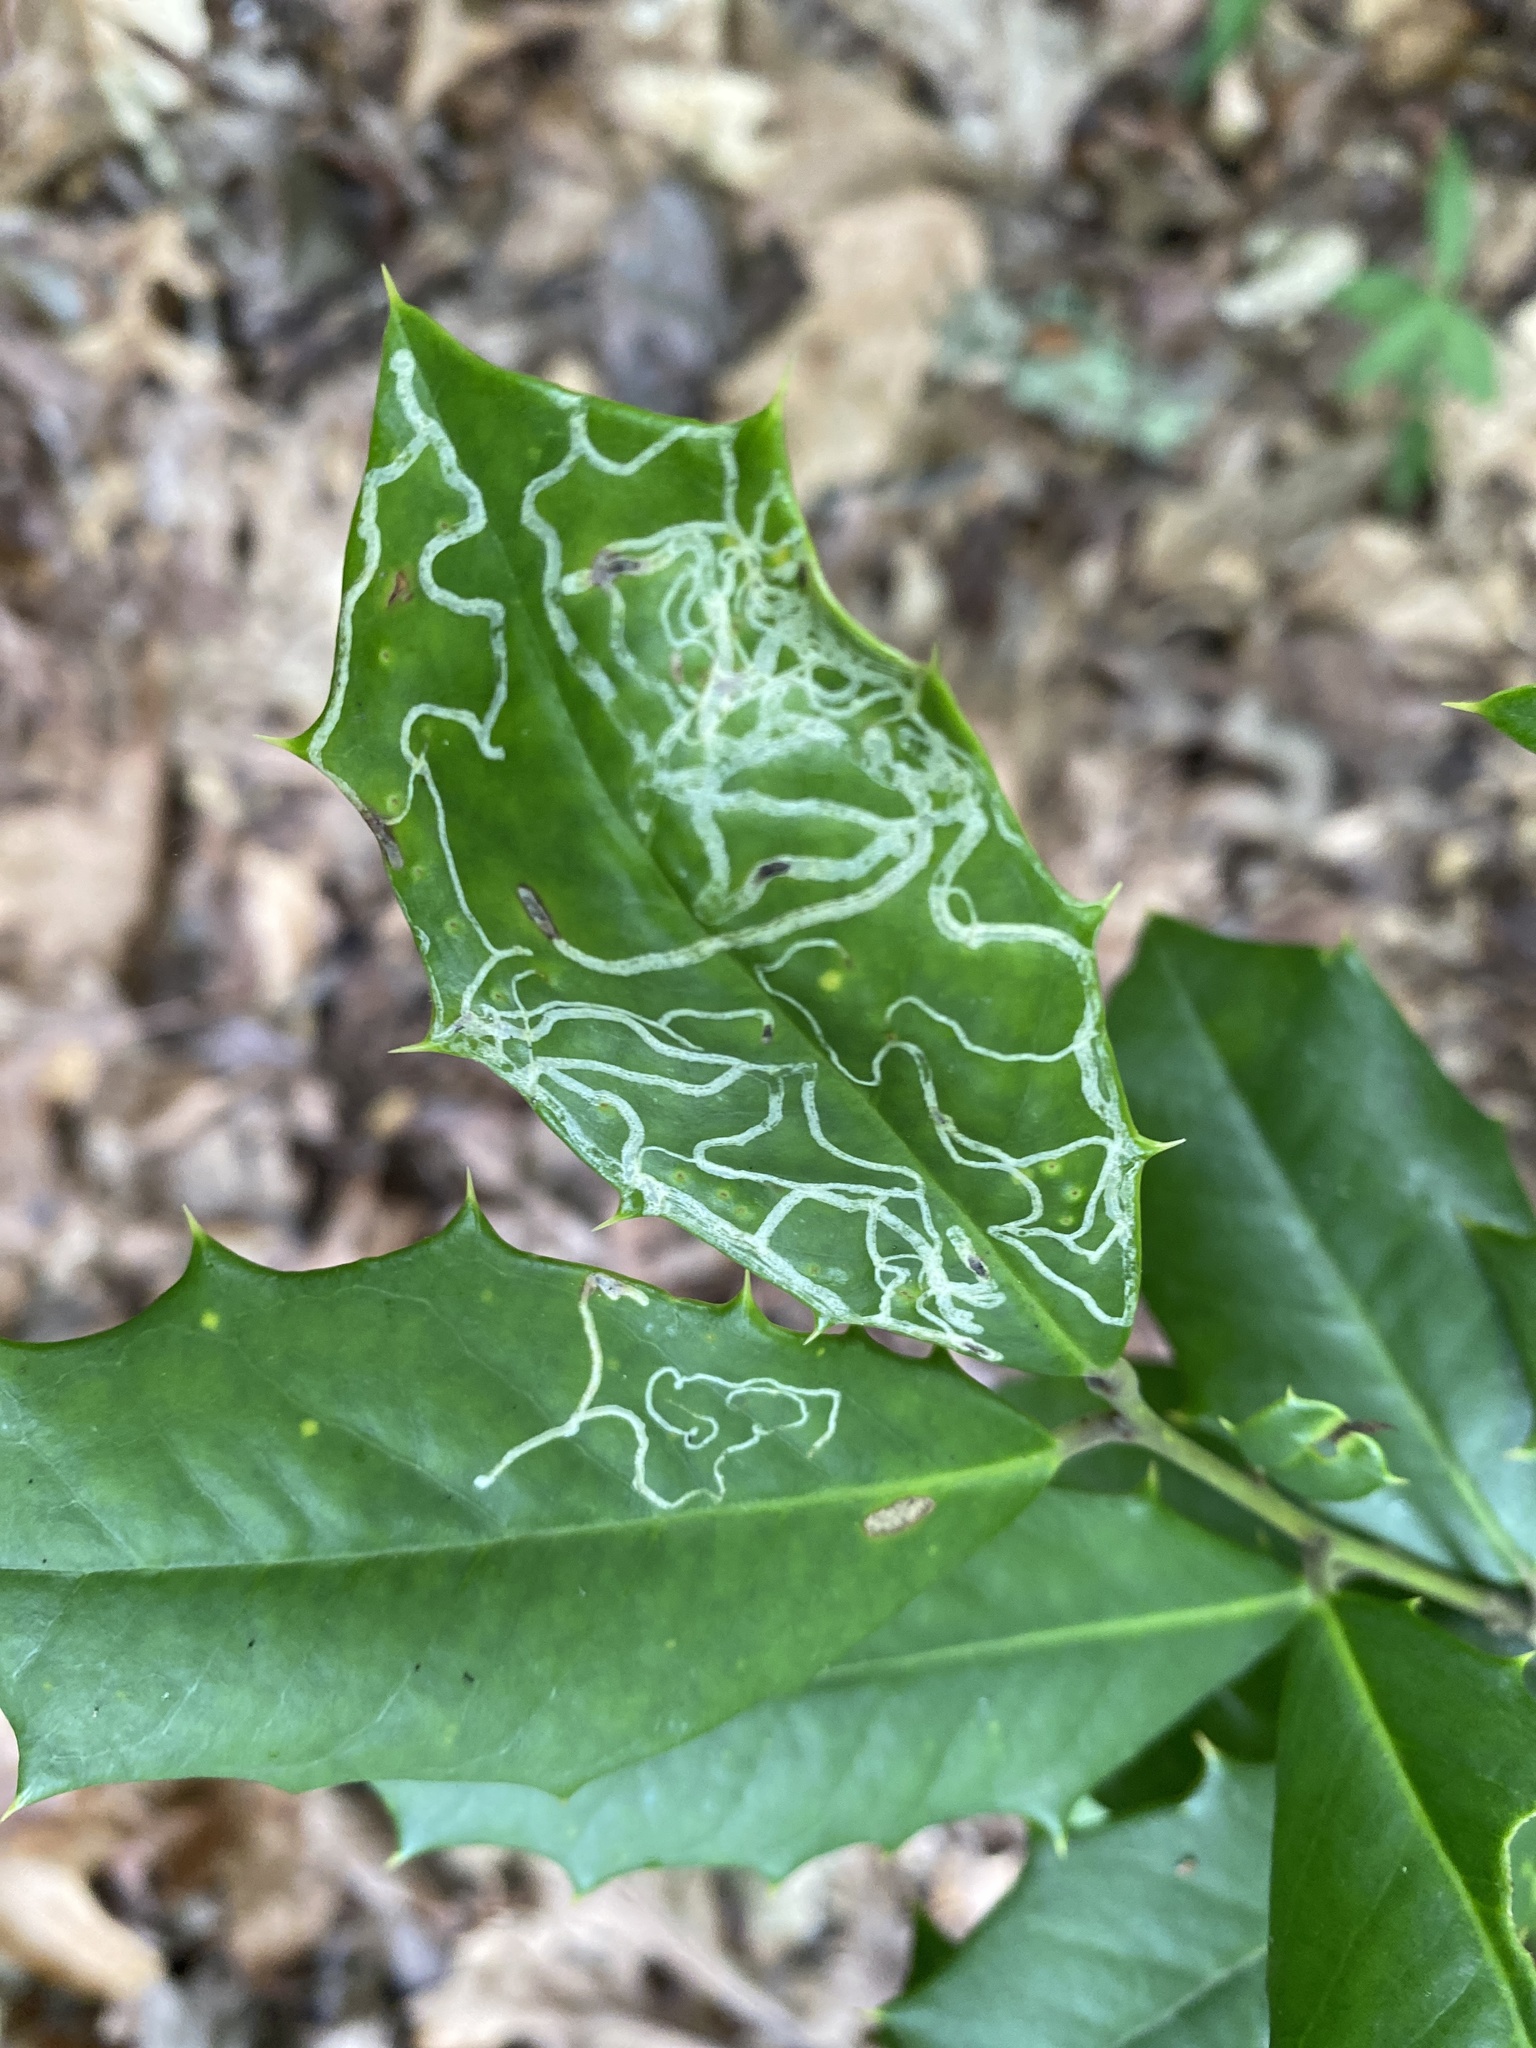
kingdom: Animalia
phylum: Arthropoda
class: Insecta
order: Diptera
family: Agromyzidae
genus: Phytomyza
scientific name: Phytomyza opacae
